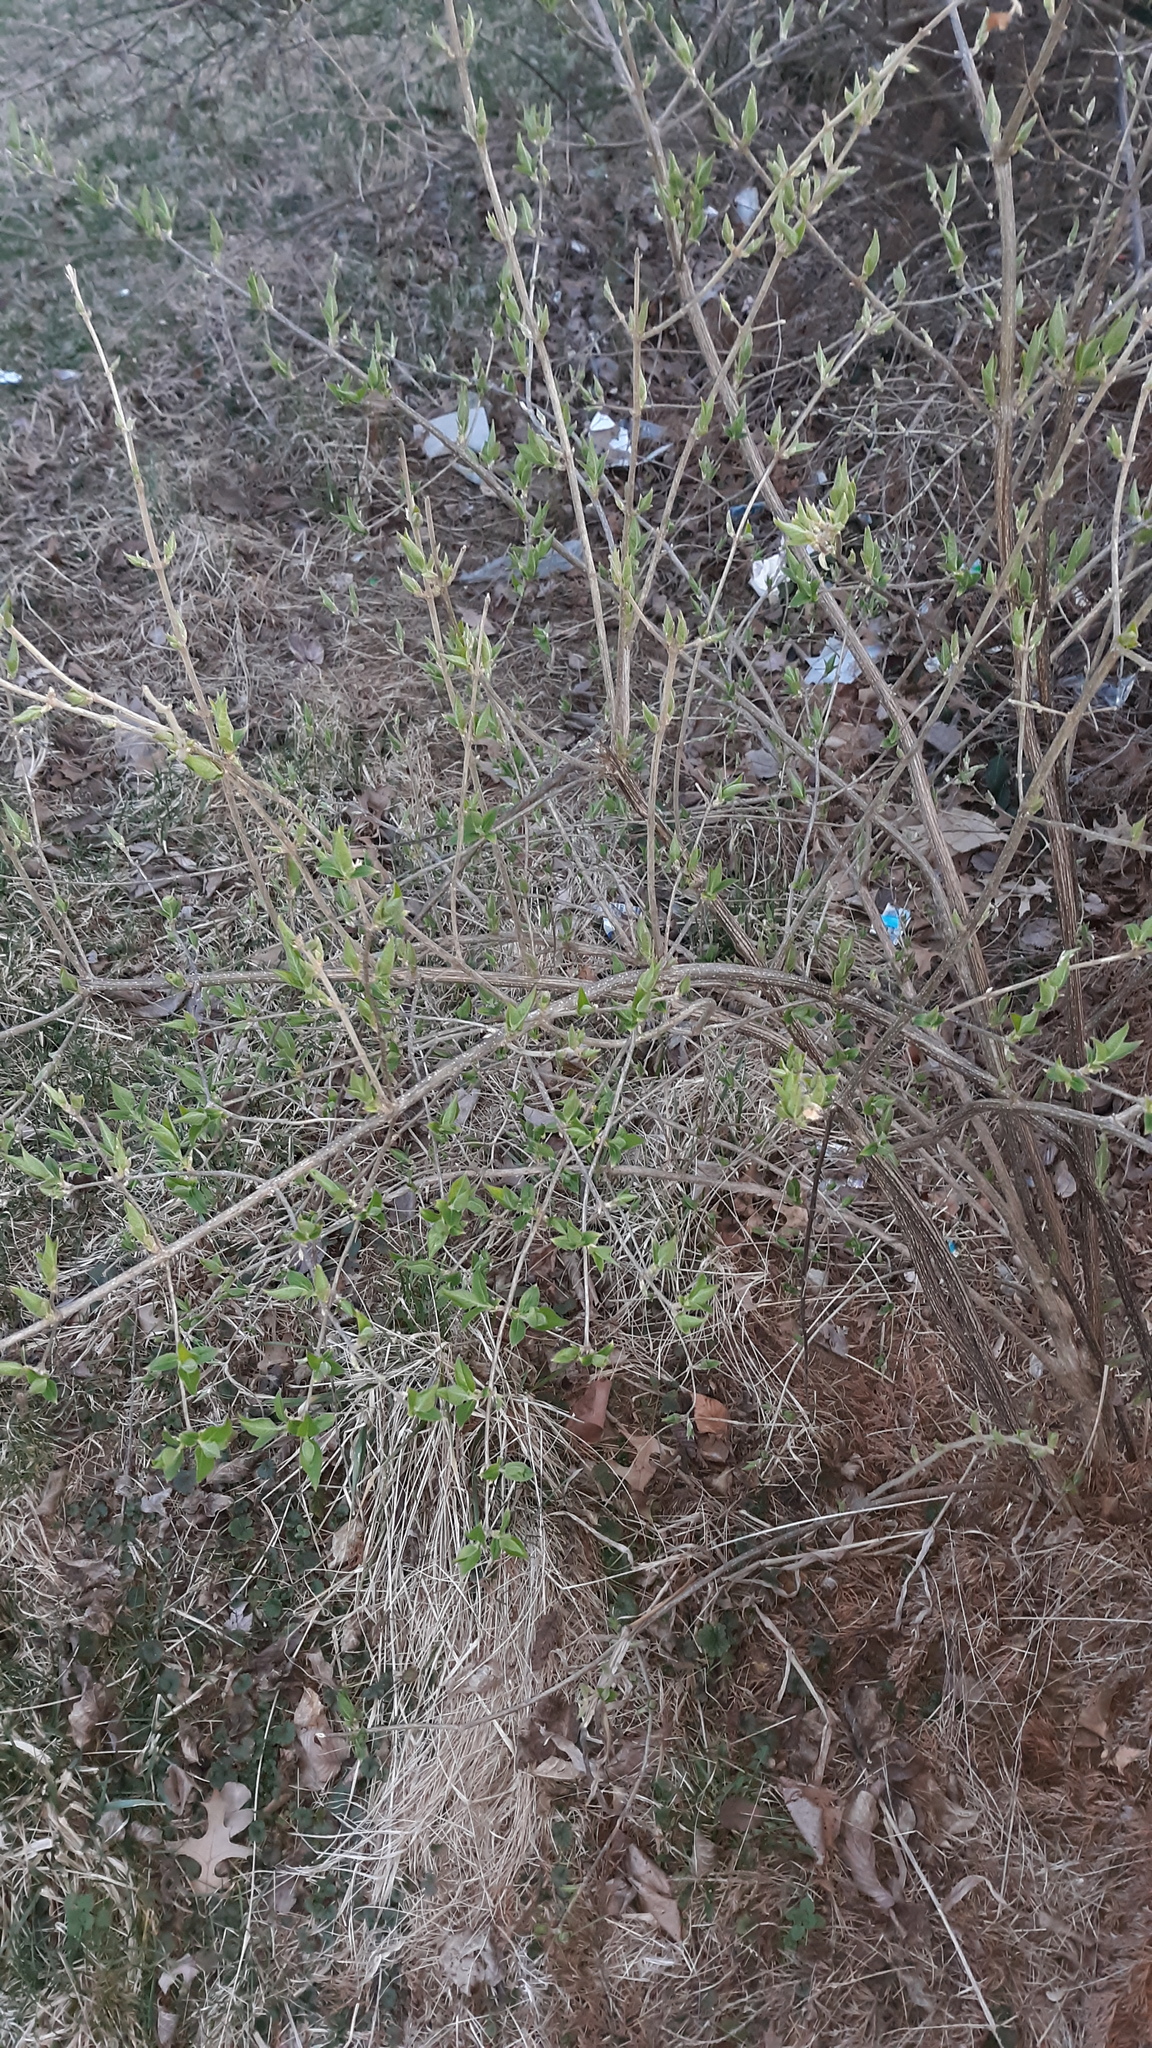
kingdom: Plantae
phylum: Tracheophyta
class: Magnoliopsida
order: Dipsacales
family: Caprifoliaceae
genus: Lonicera
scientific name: Lonicera maackii
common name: Amur honeysuckle
